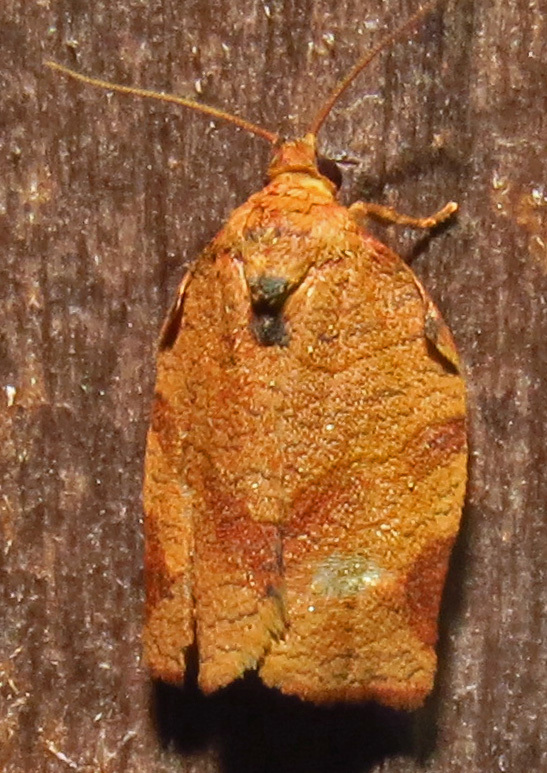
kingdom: Animalia
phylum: Arthropoda
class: Insecta
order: Lepidoptera
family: Tortricidae
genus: Choristoneura
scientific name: Choristoneura rosaceana
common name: Oblique-banded leafroller moth
